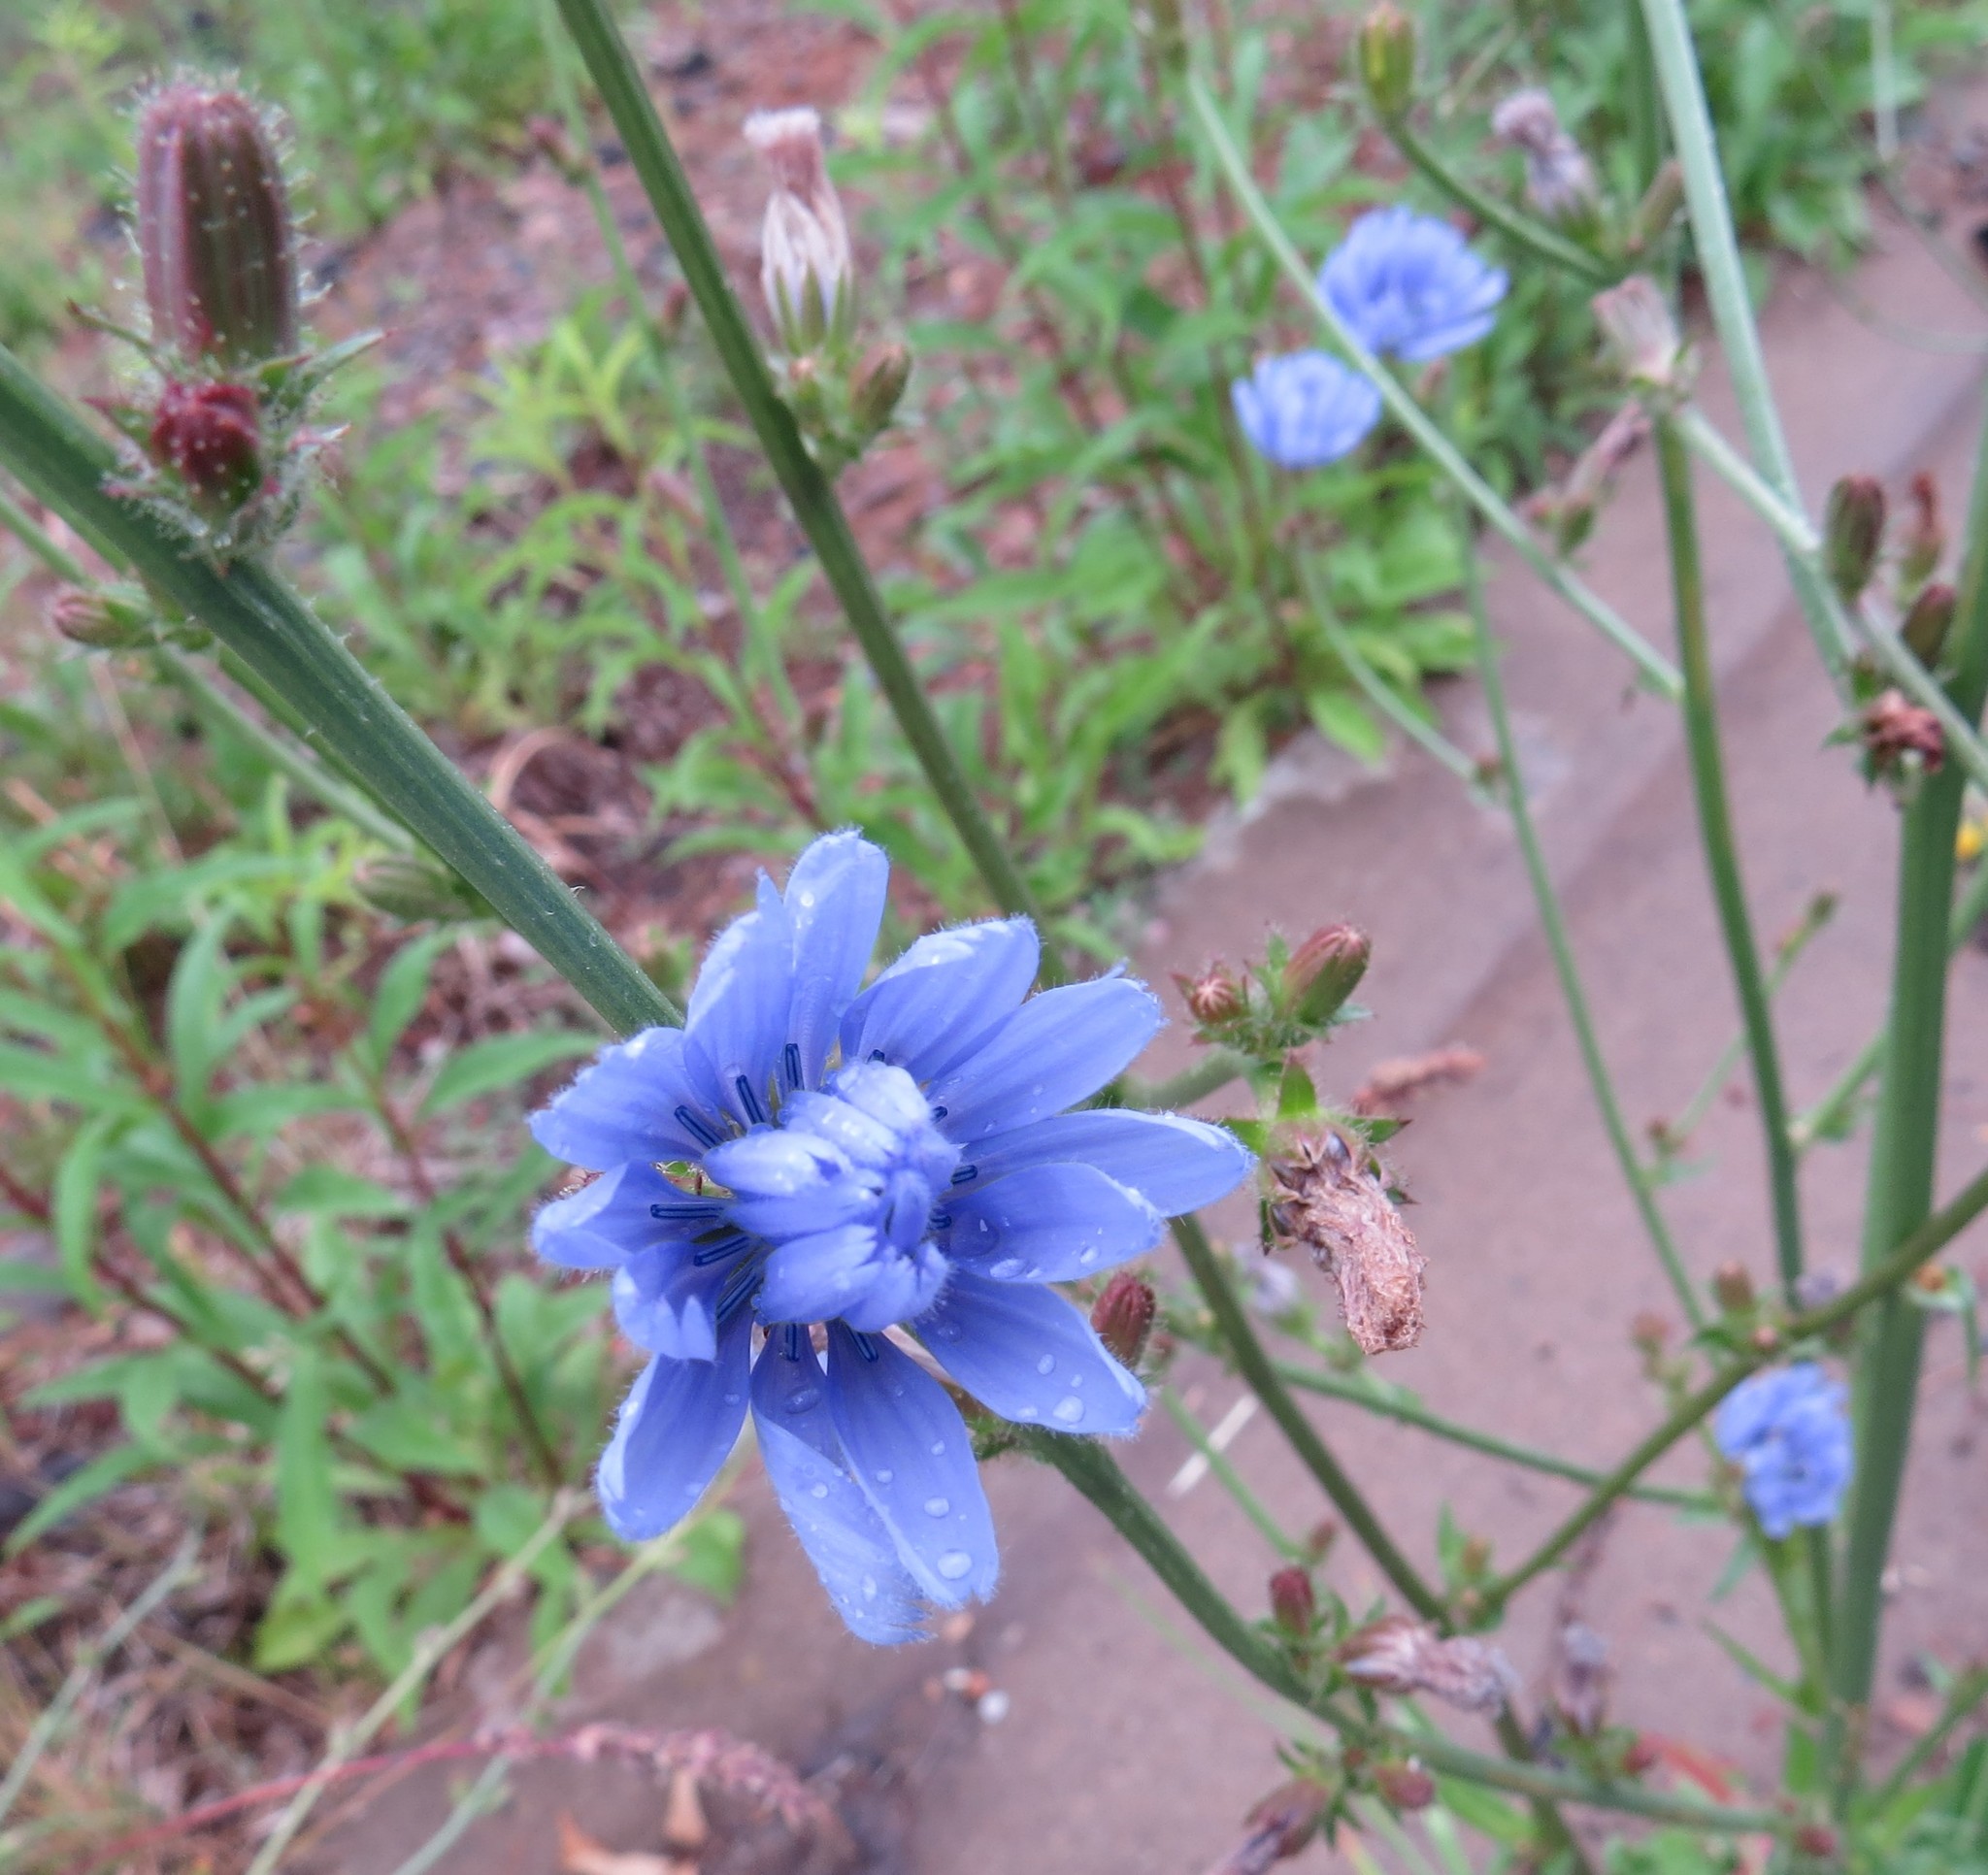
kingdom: Plantae
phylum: Tracheophyta
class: Magnoliopsida
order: Asterales
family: Asteraceae
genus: Cichorium
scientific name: Cichorium intybus
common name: Chicory
